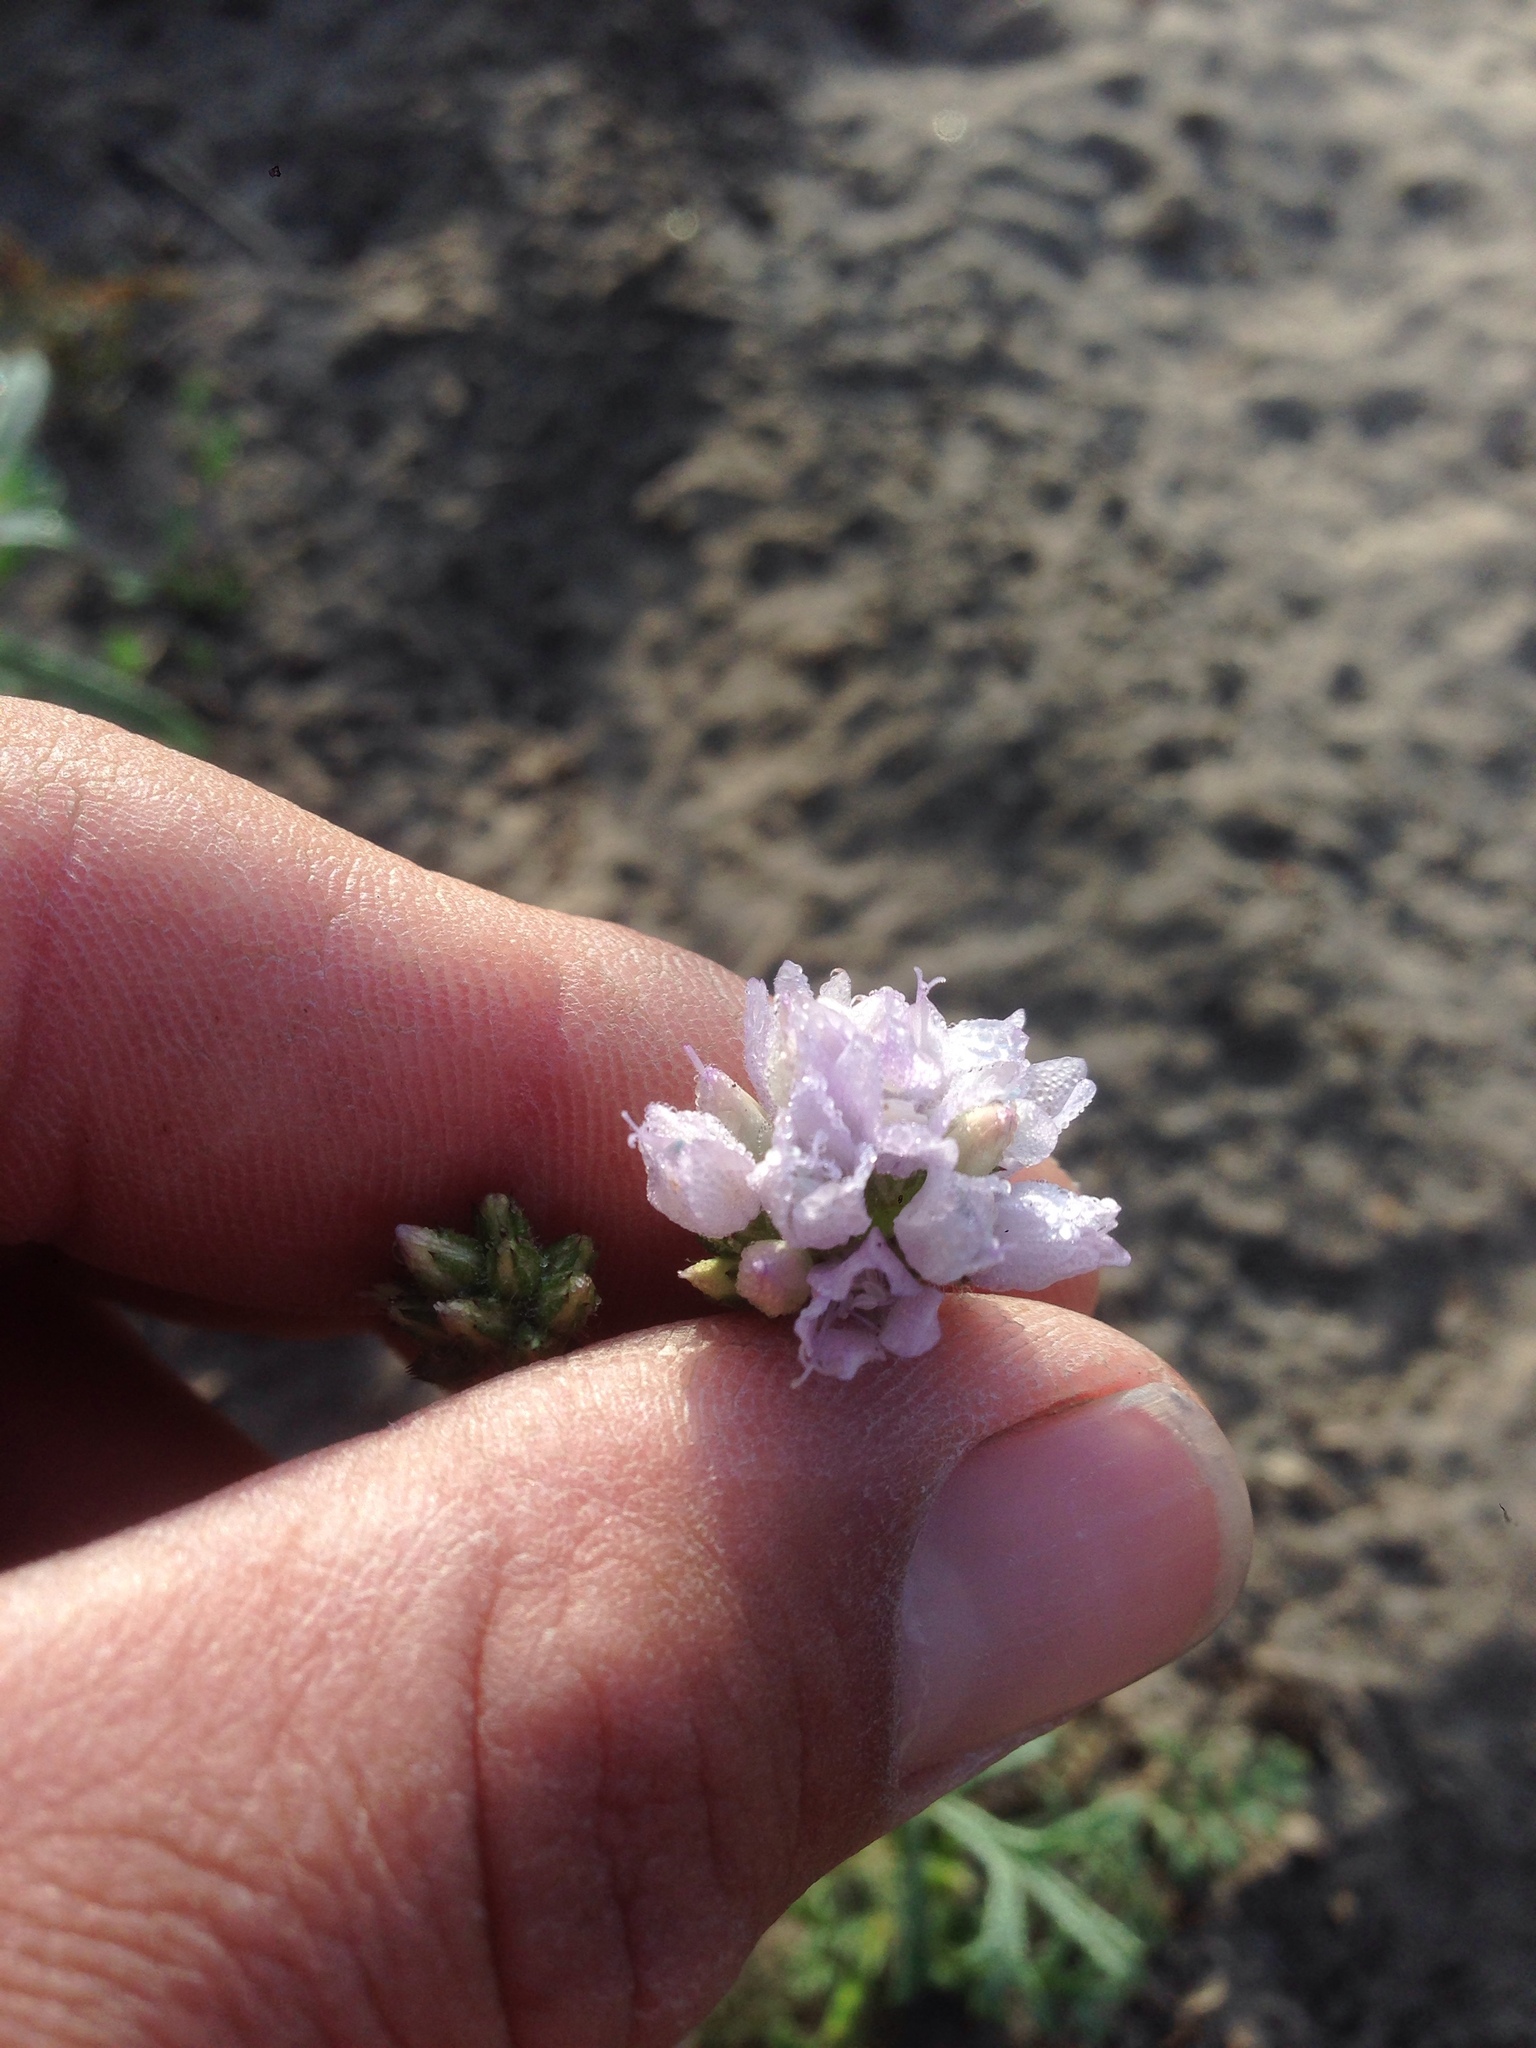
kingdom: Plantae
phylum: Tracheophyta
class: Magnoliopsida
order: Ericales
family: Polemoniaceae
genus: Gilia
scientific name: Gilia capitata
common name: Bluehead gilia
